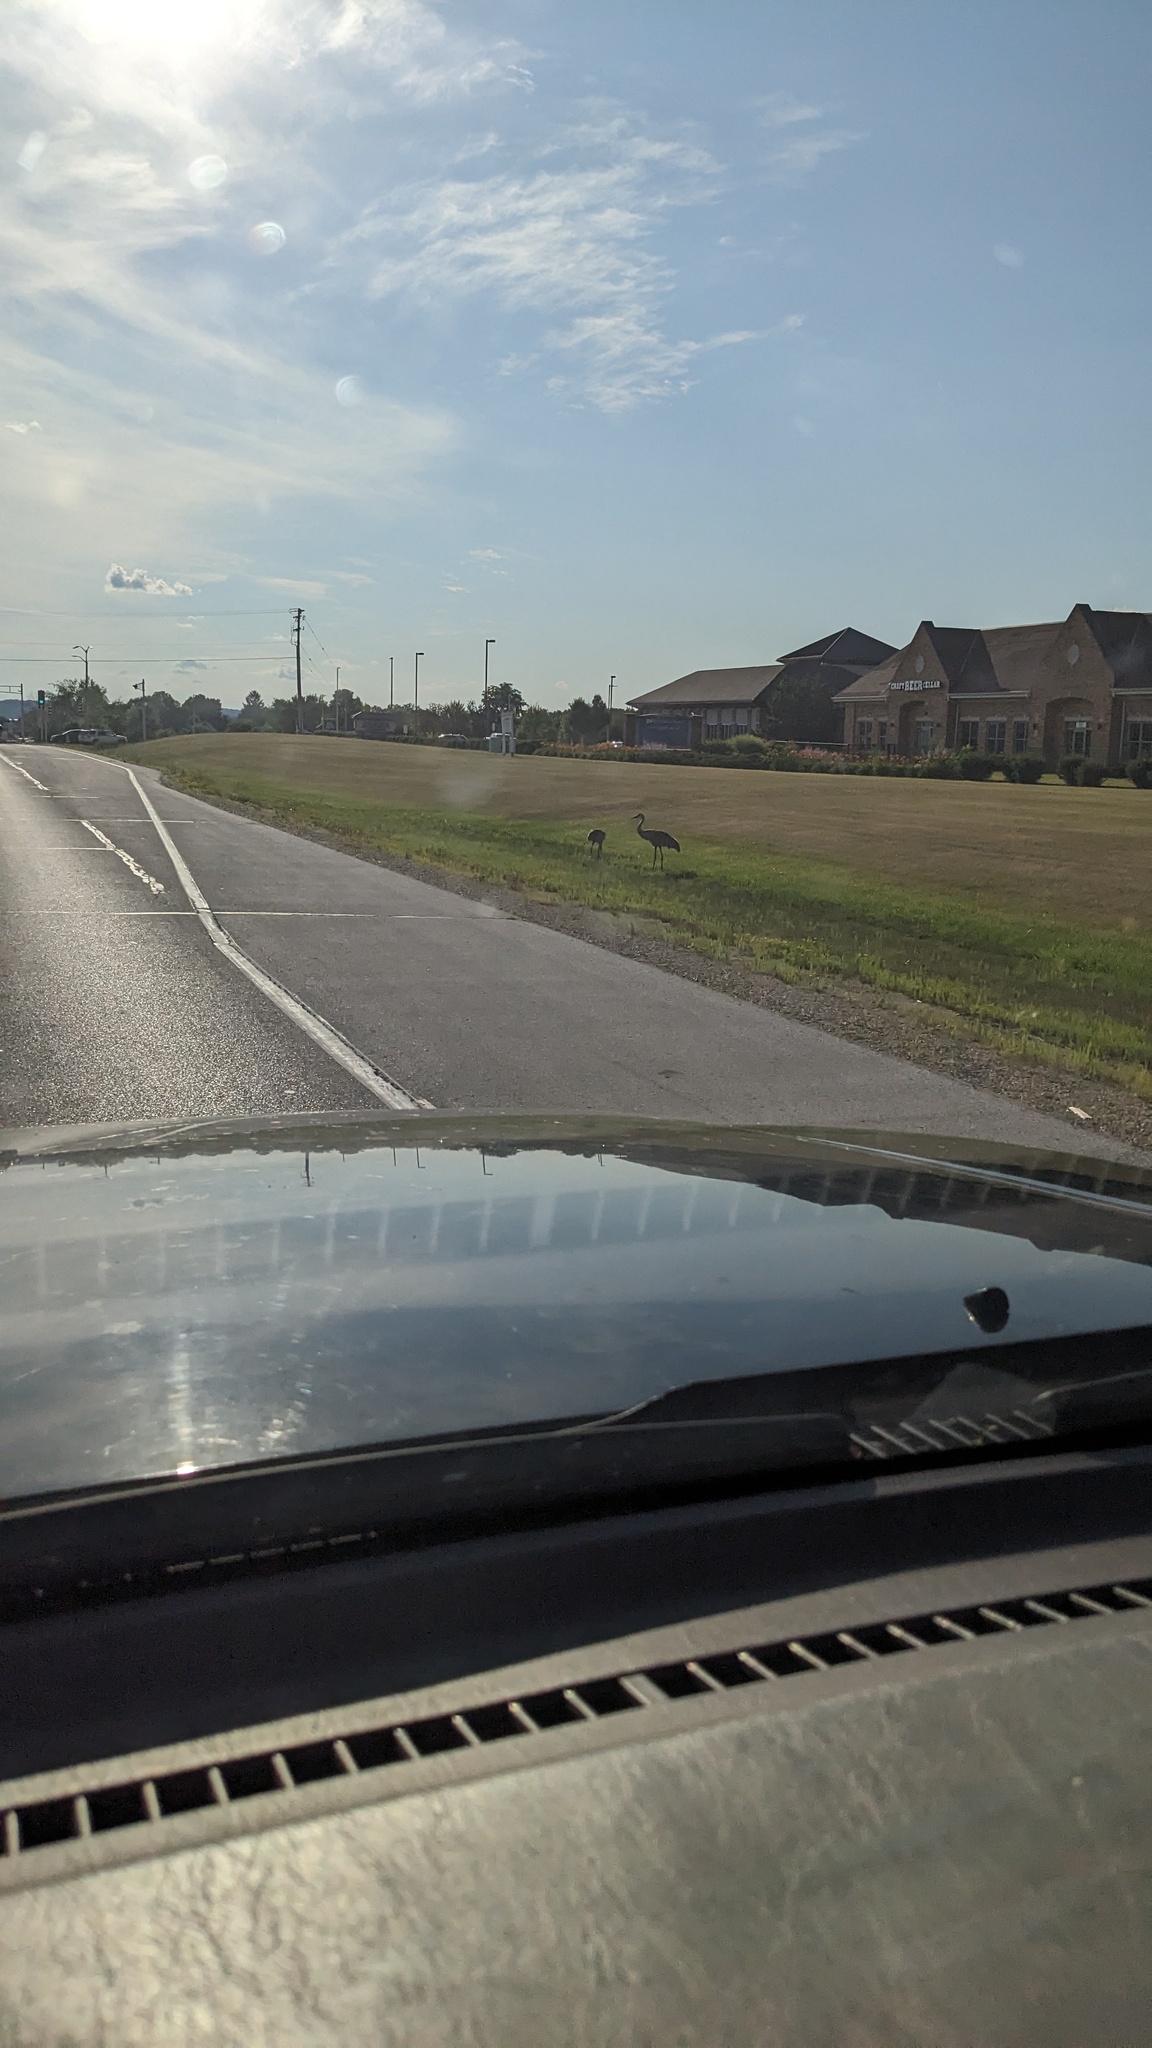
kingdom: Animalia
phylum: Chordata
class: Aves
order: Gruiformes
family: Gruidae
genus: Grus
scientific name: Grus canadensis
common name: Sandhill crane
